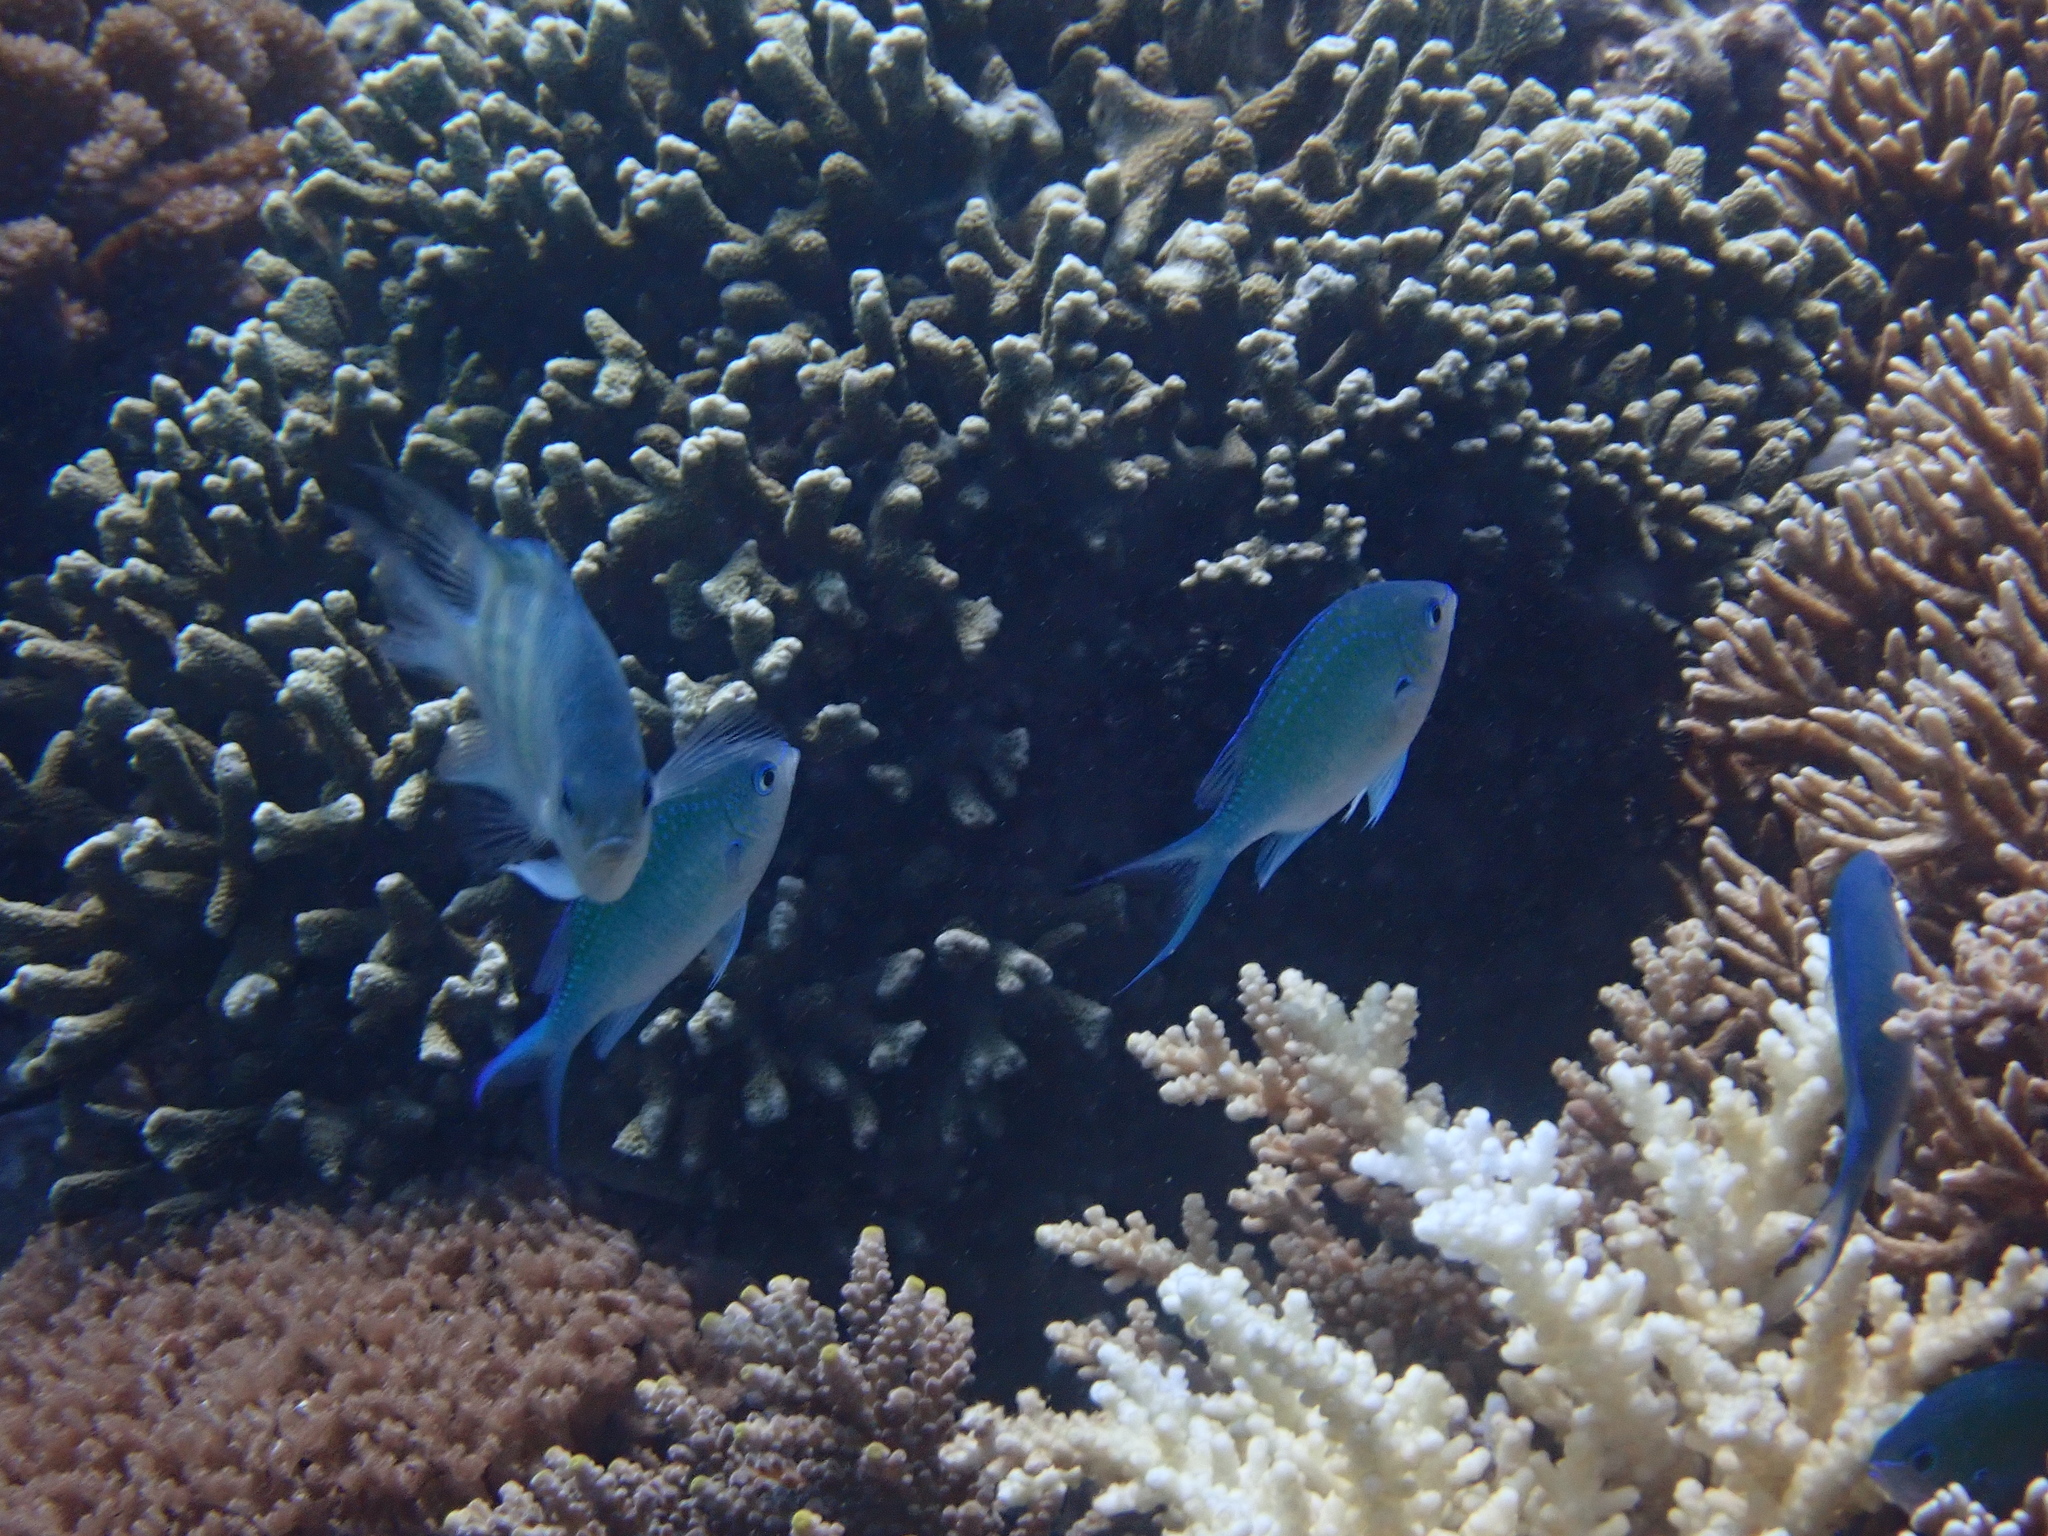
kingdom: Animalia
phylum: Chordata
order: Perciformes
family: Pomacentridae
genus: Chromis
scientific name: Chromis viridis
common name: Blue-green chromis
